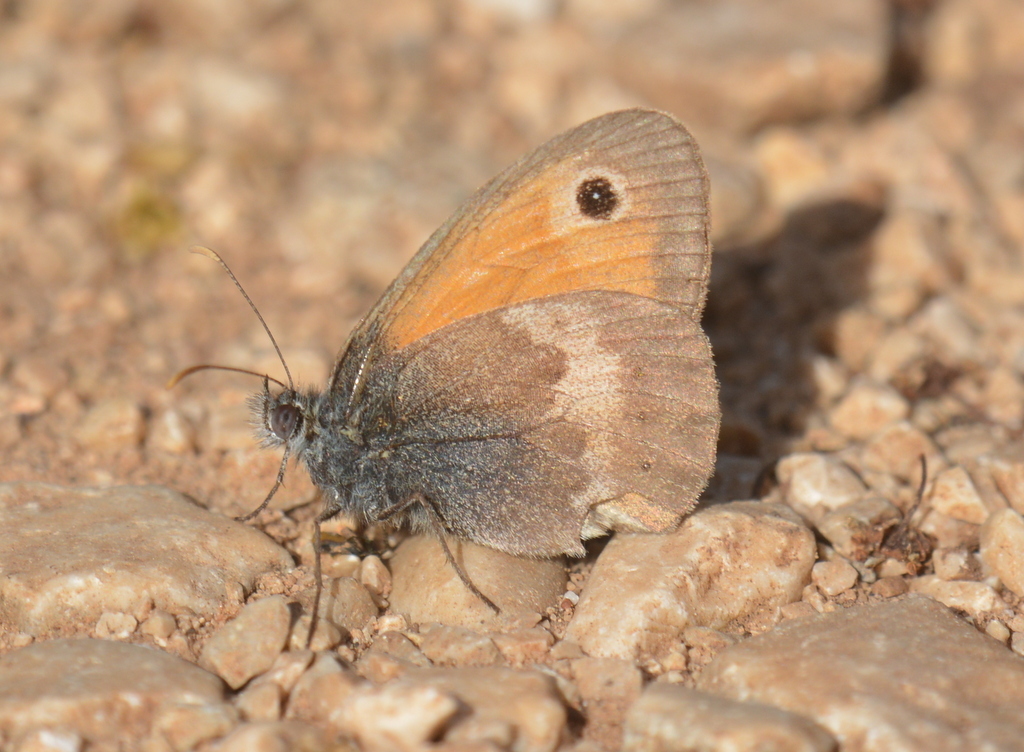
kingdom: Animalia
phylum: Arthropoda
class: Insecta
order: Lepidoptera
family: Nymphalidae
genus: Coenonympha
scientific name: Coenonympha pamphilus
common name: Small heath
